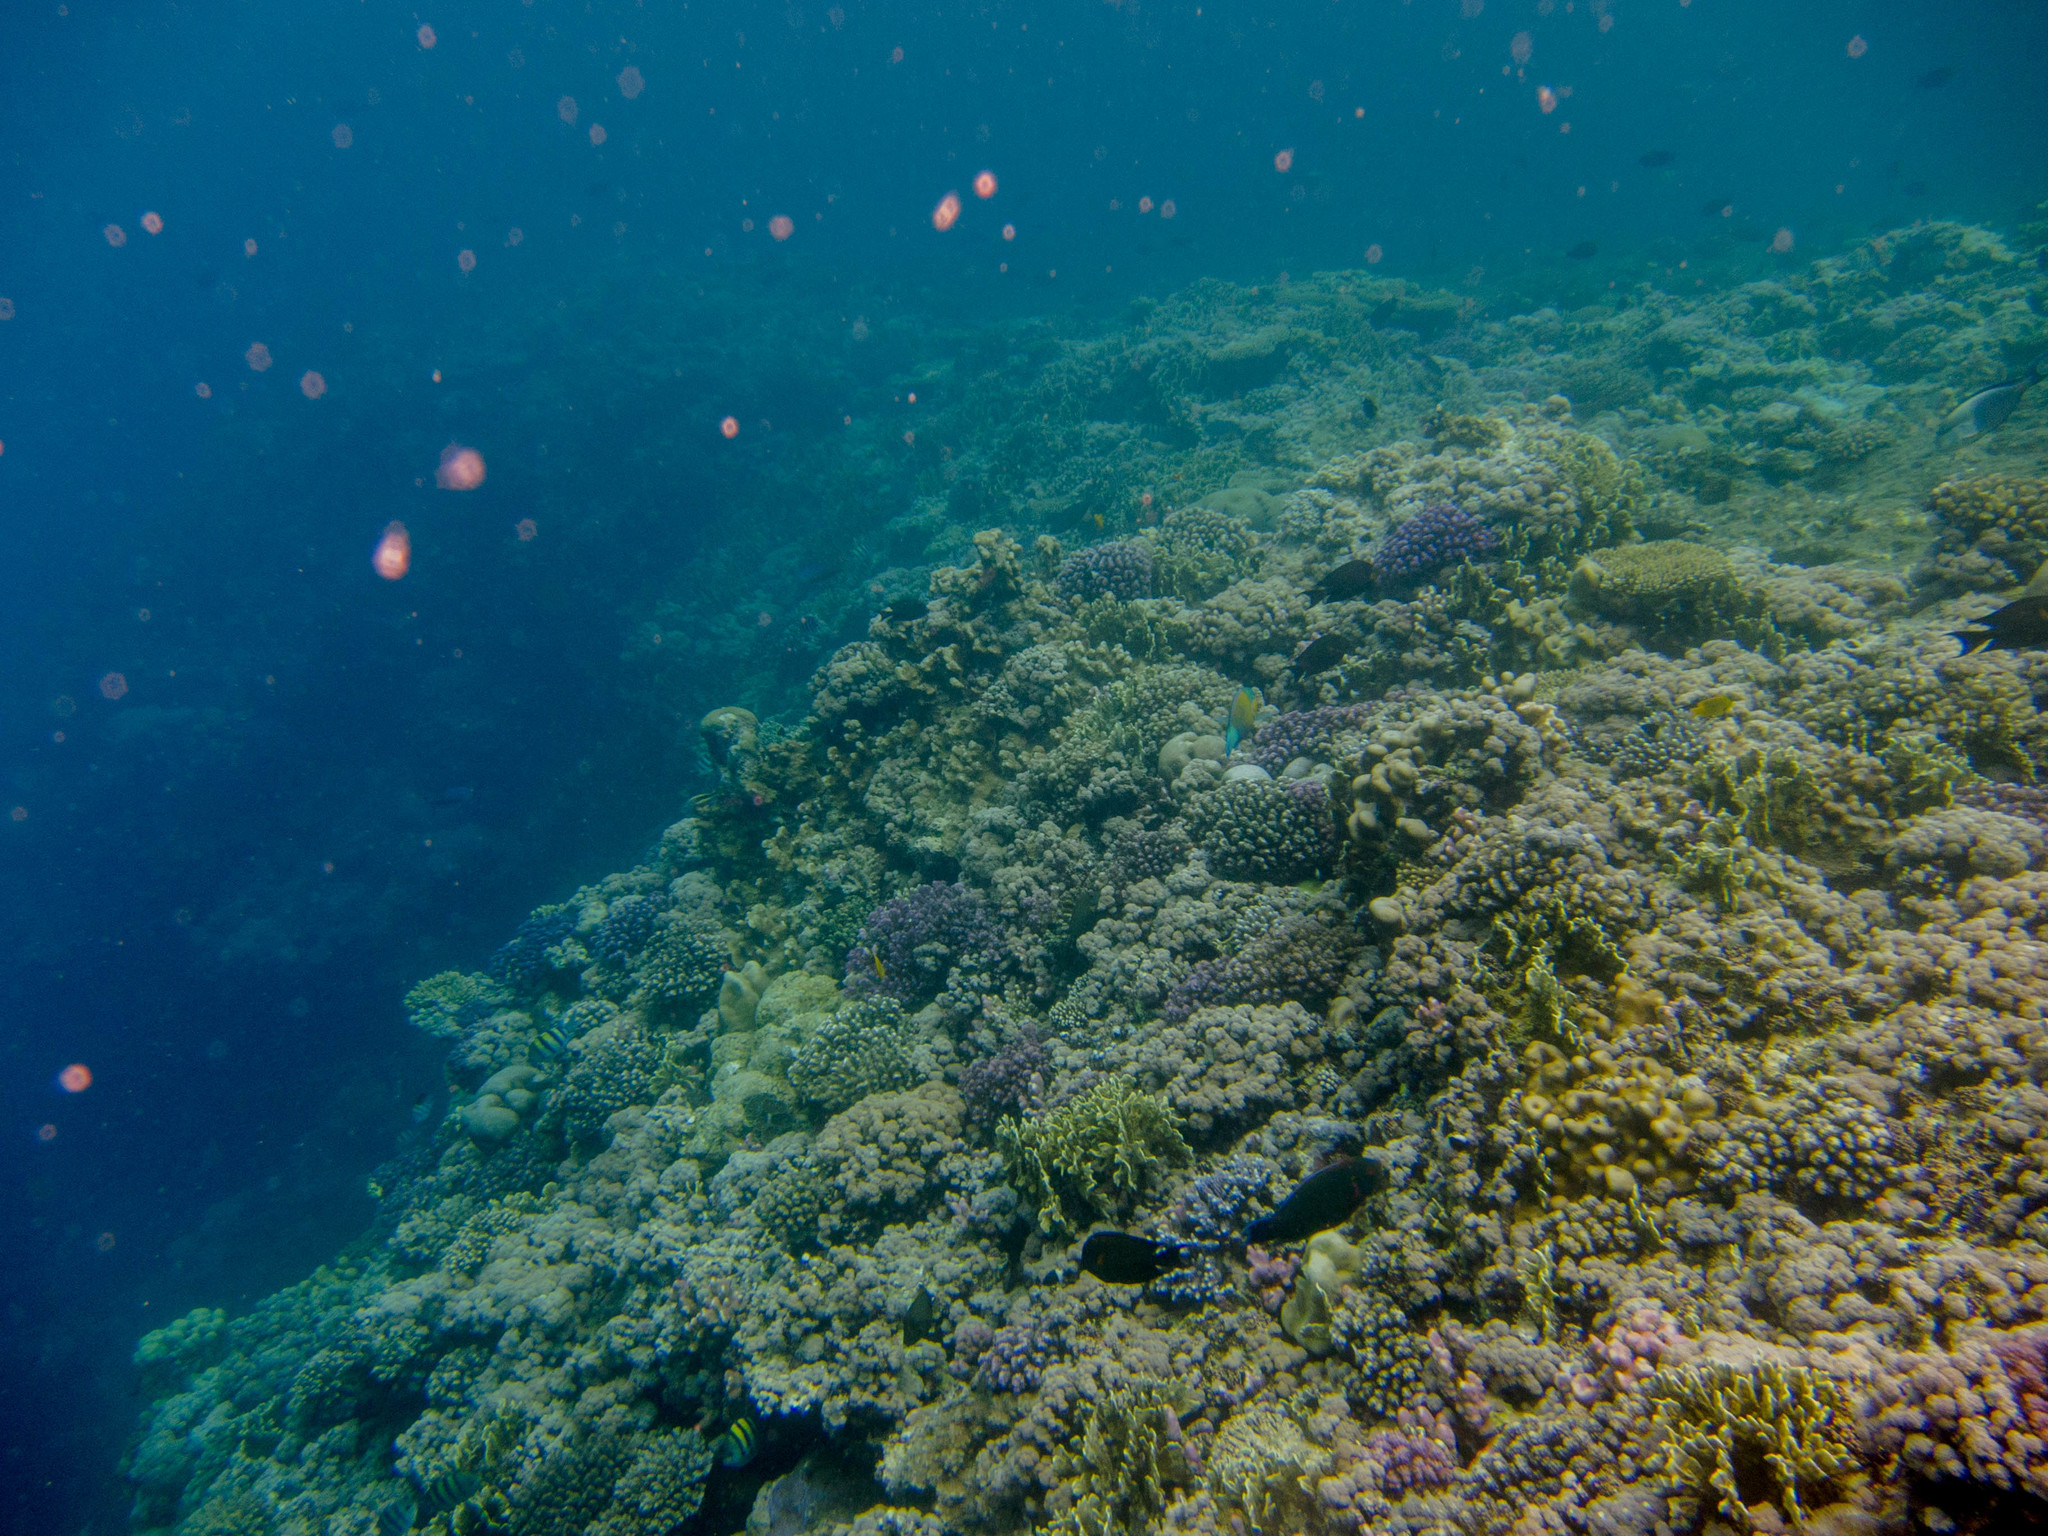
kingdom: Animalia
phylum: Chordata
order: Perciformes
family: Acanthuridae
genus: Acanthurus
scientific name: Acanthurus sohal
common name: Red sea surgeonfish
